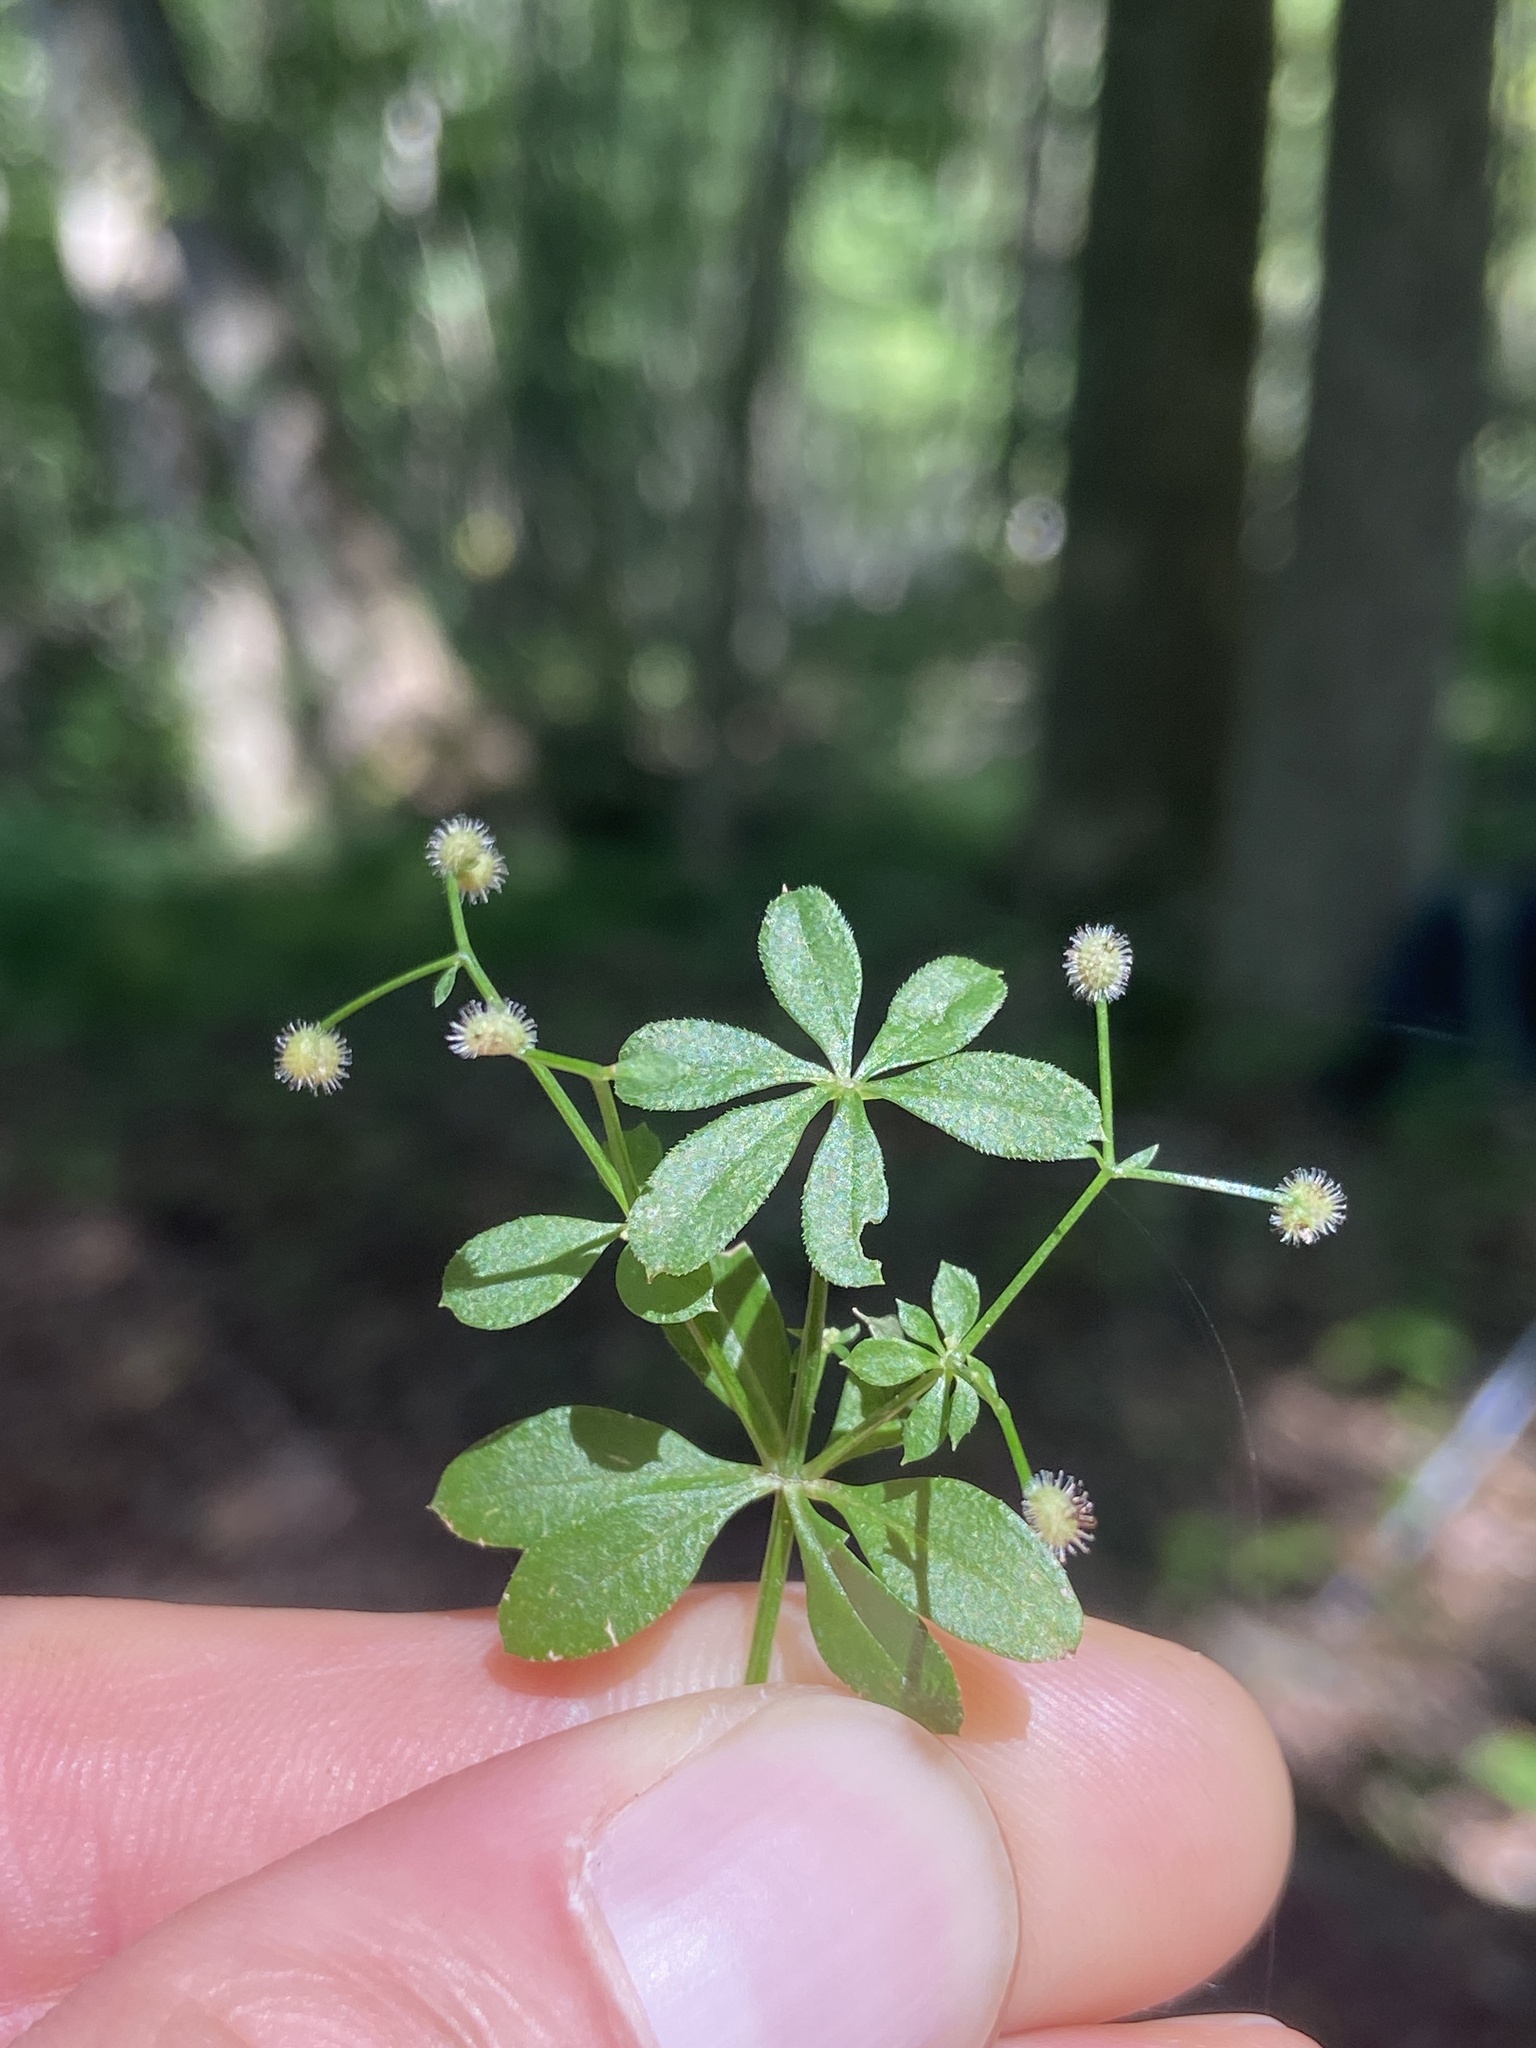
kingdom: Plantae
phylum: Tracheophyta
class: Magnoliopsida
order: Gentianales
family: Rubiaceae
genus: Galium
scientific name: Galium triflorum
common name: Fragrant bedstraw
